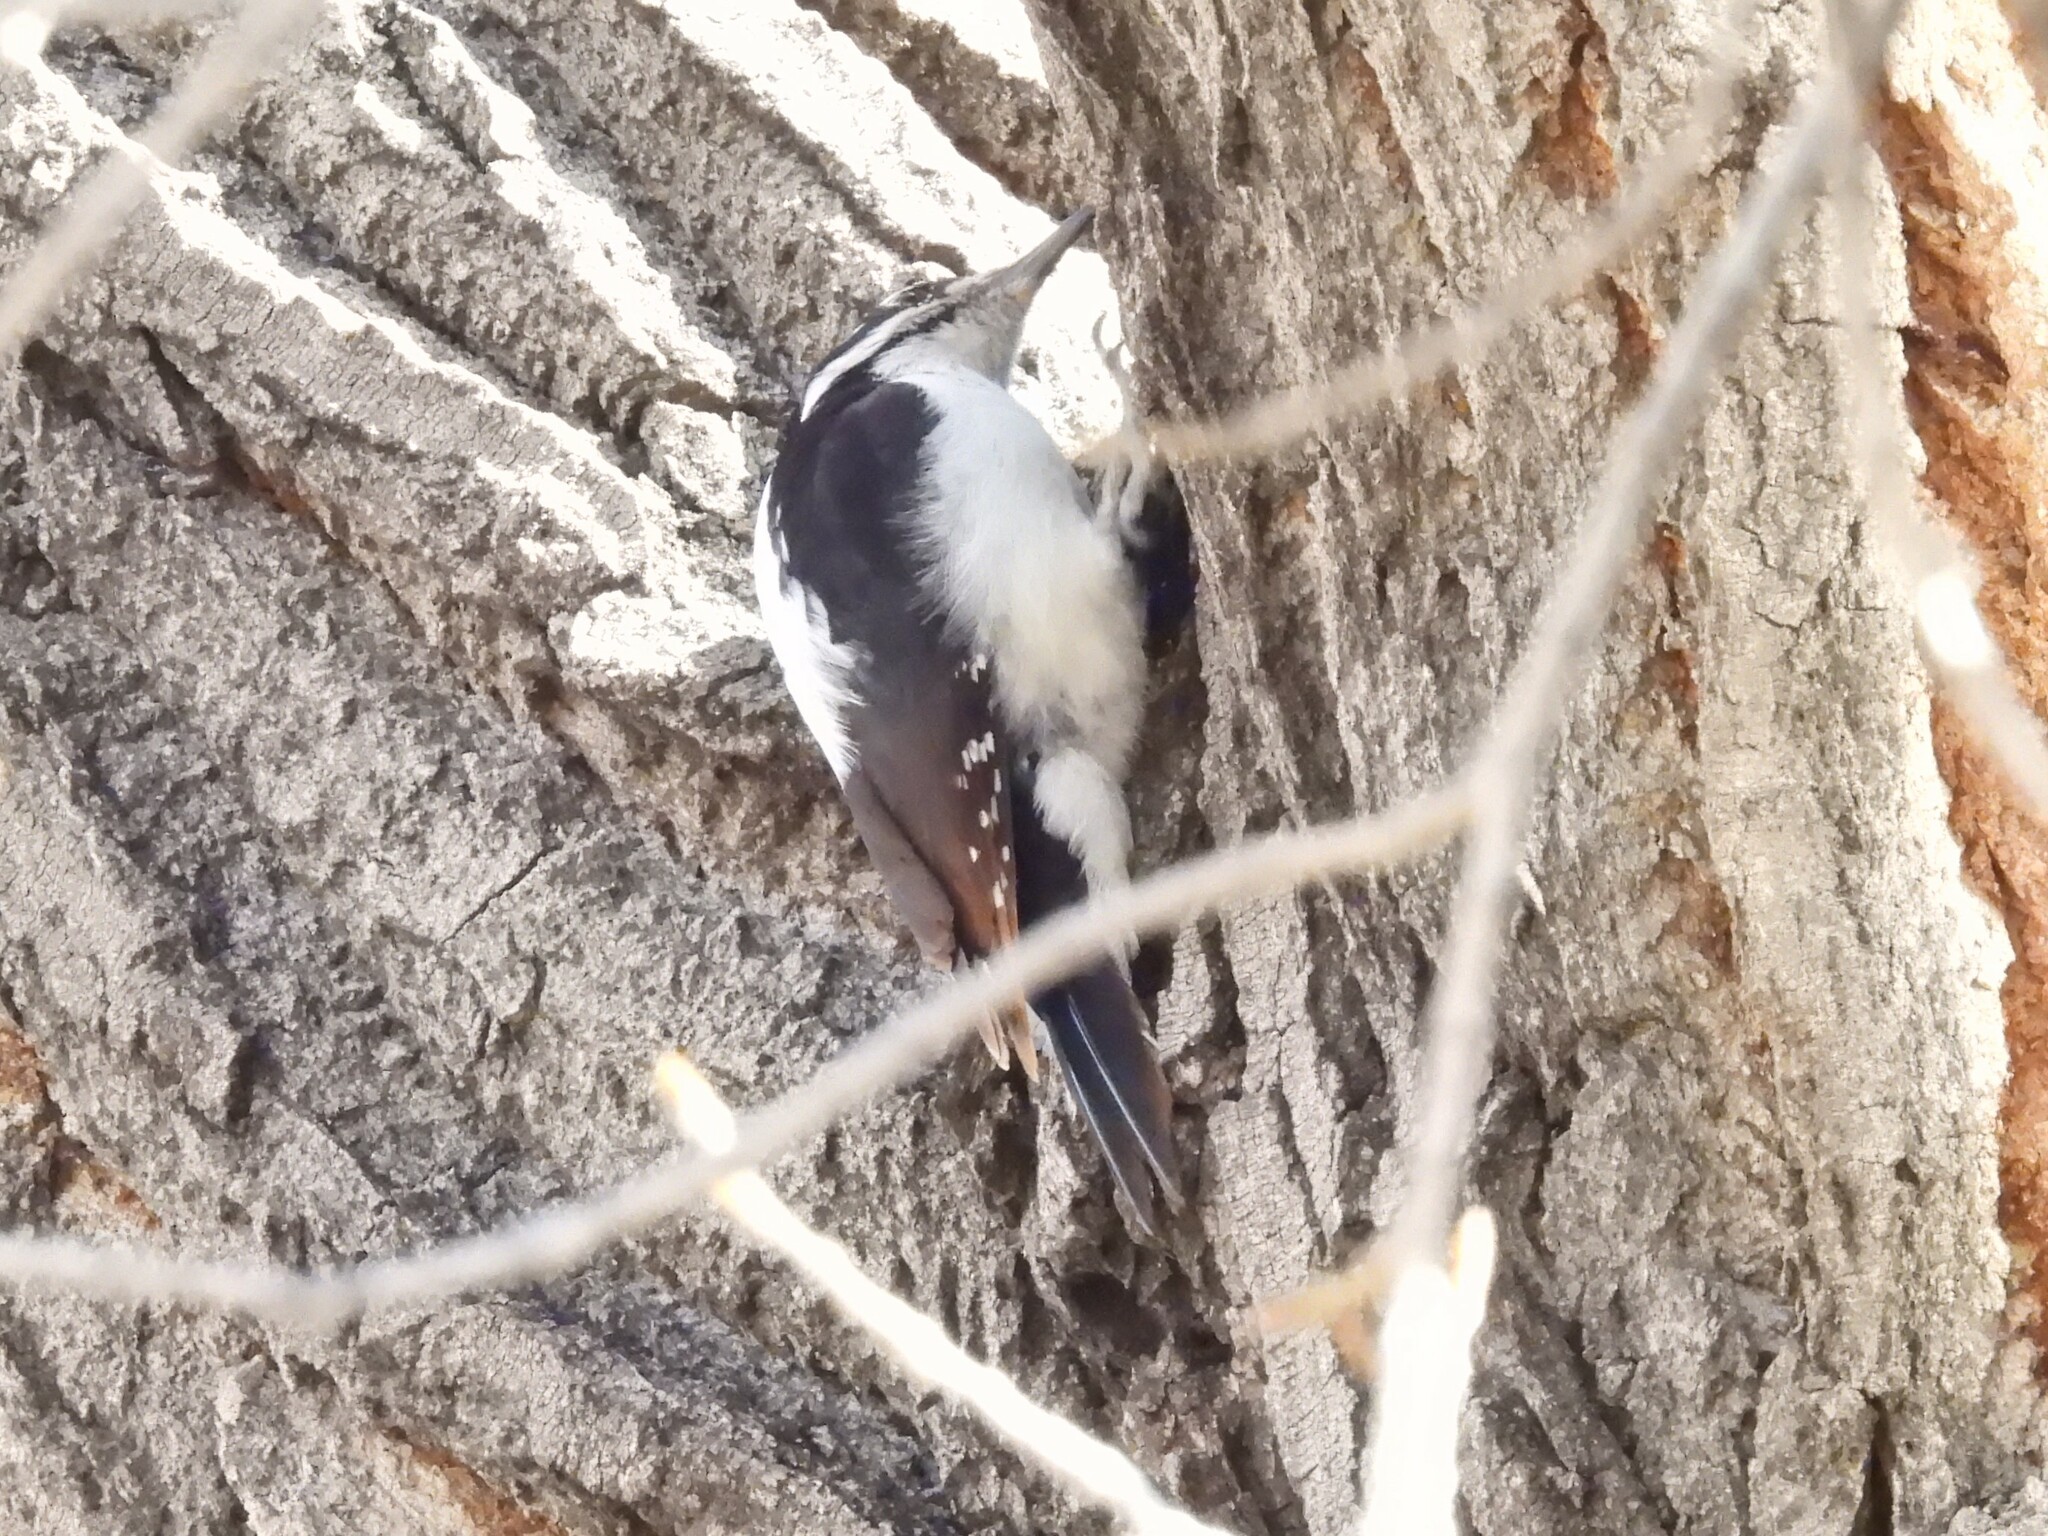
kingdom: Animalia
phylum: Chordata
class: Aves
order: Piciformes
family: Picidae
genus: Leuconotopicus
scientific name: Leuconotopicus villosus
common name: Hairy woodpecker
